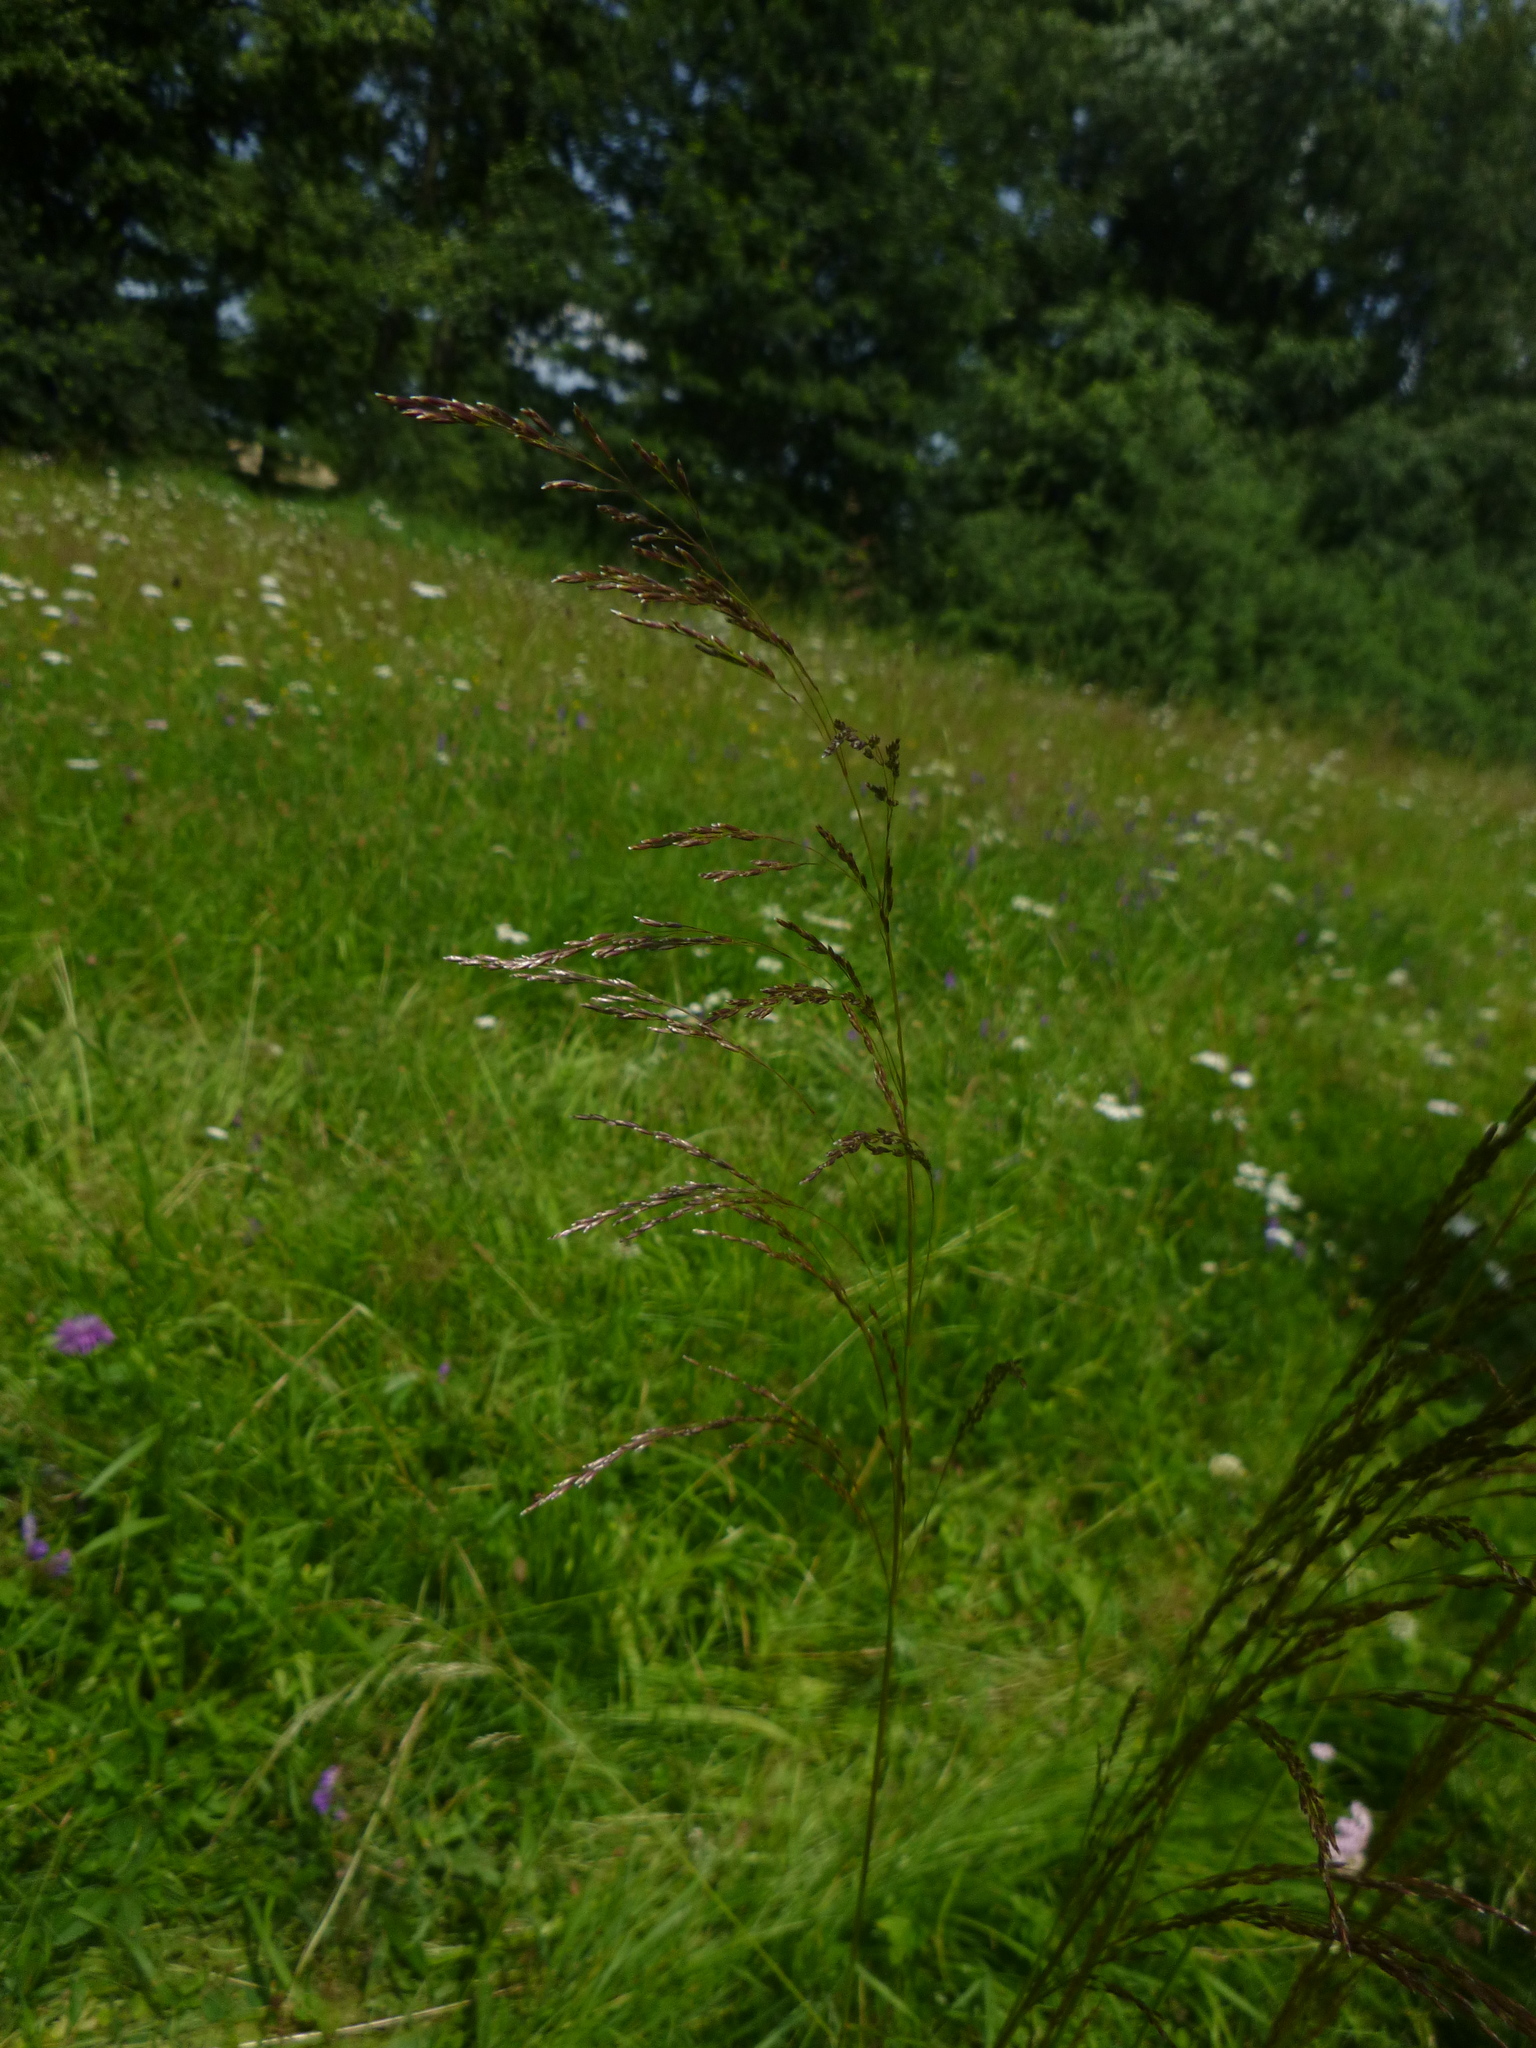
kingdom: Plantae
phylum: Tracheophyta
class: Liliopsida
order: Poales
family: Poaceae
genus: Deschampsia
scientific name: Deschampsia cespitosa
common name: Tufted hair-grass
